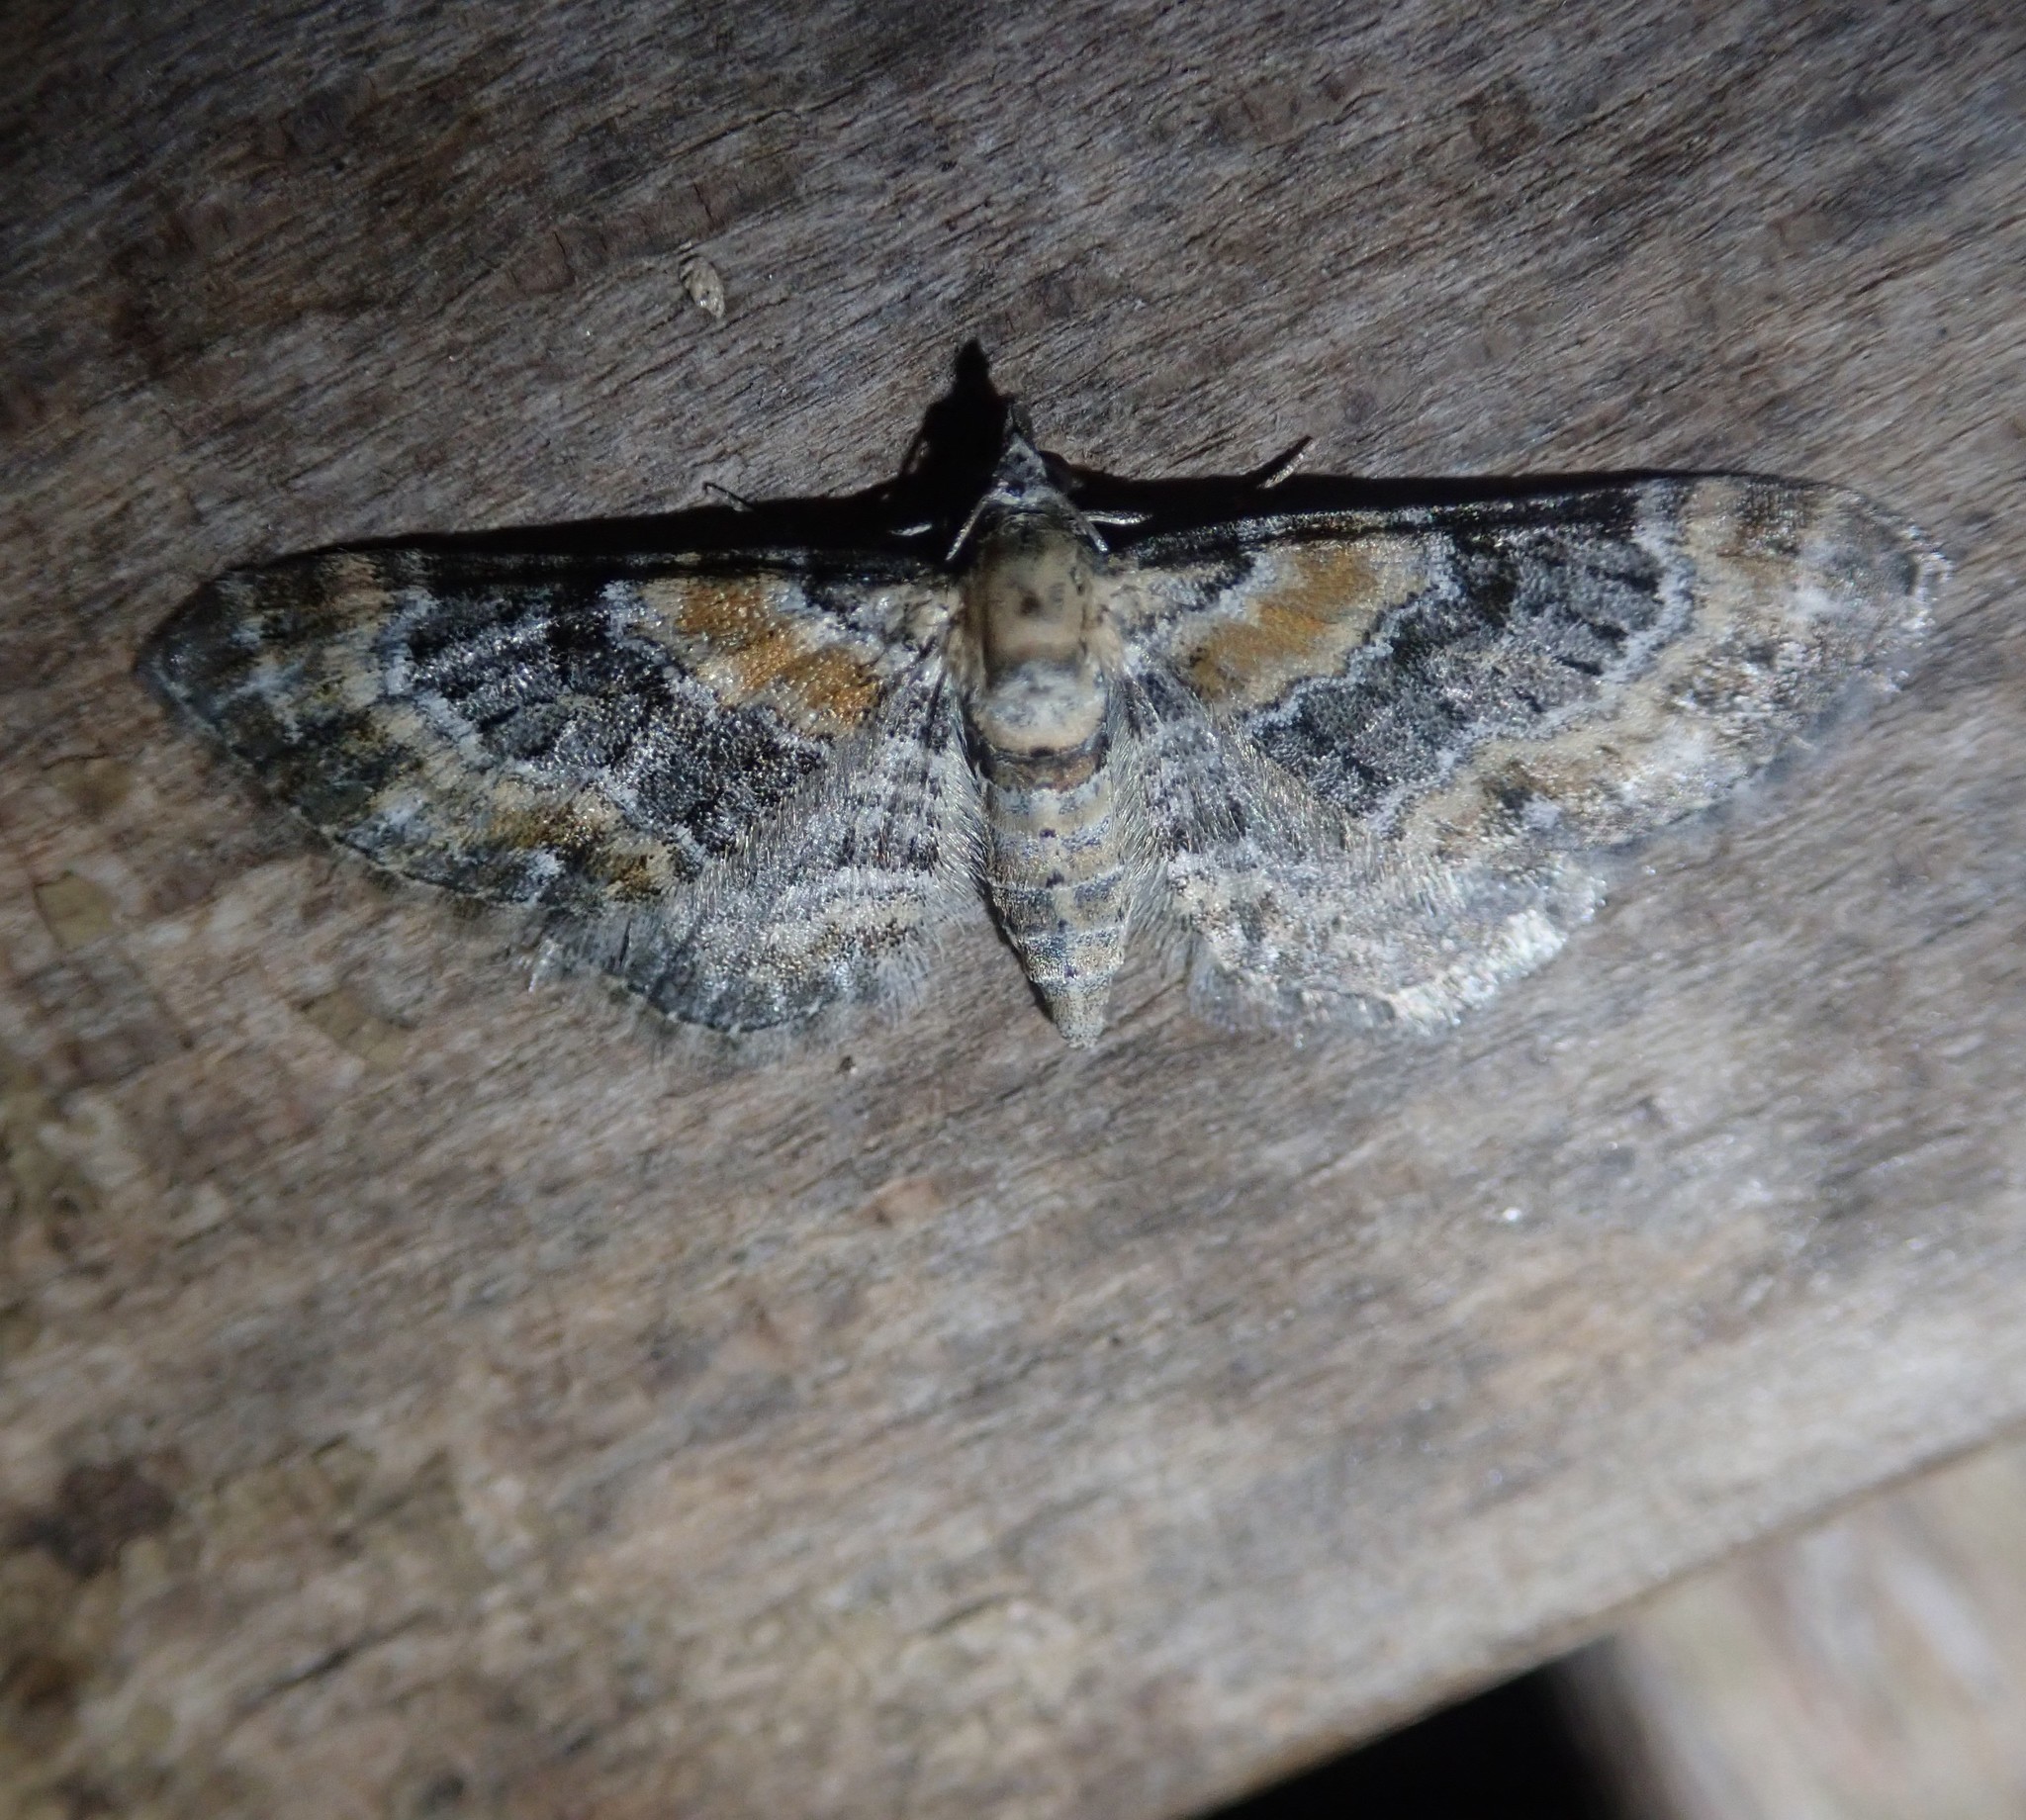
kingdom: Animalia
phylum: Arthropoda
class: Insecta
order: Lepidoptera
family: Geometridae
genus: Eupithecia
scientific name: Eupithecia pulchellata
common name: Foxglove pug
